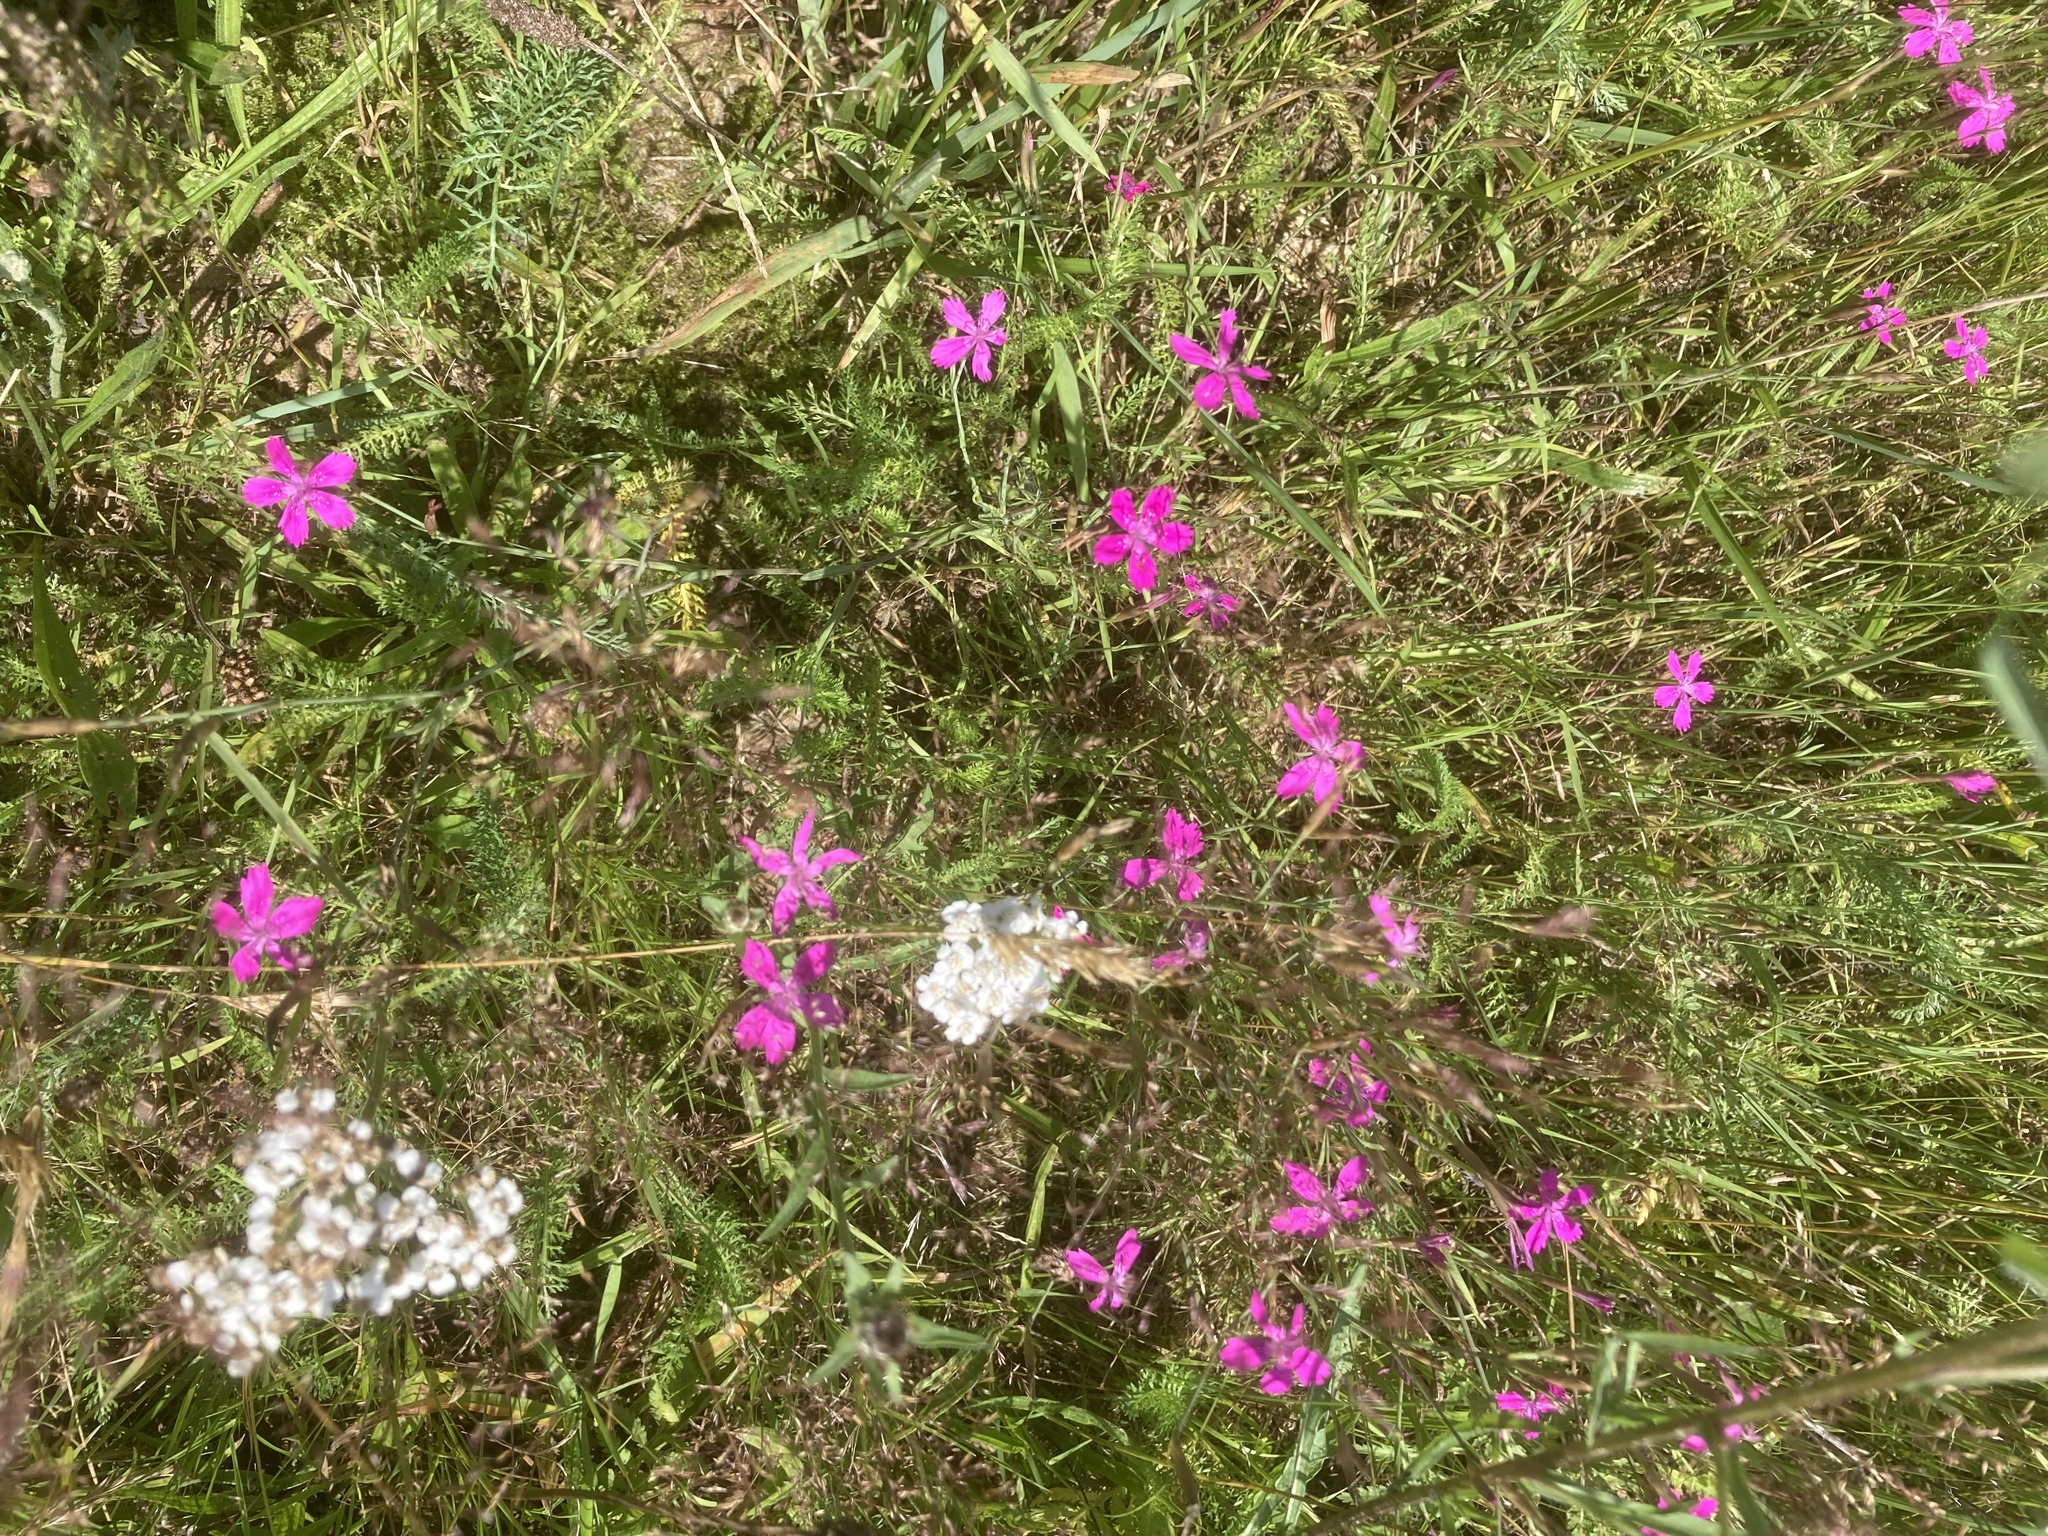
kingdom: Plantae
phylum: Tracheophyta
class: Magnoliopsida
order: Caryophyllales
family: Caryophyllaceae
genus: Dianthus
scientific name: Dianthus deltoides
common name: Maiden pink
